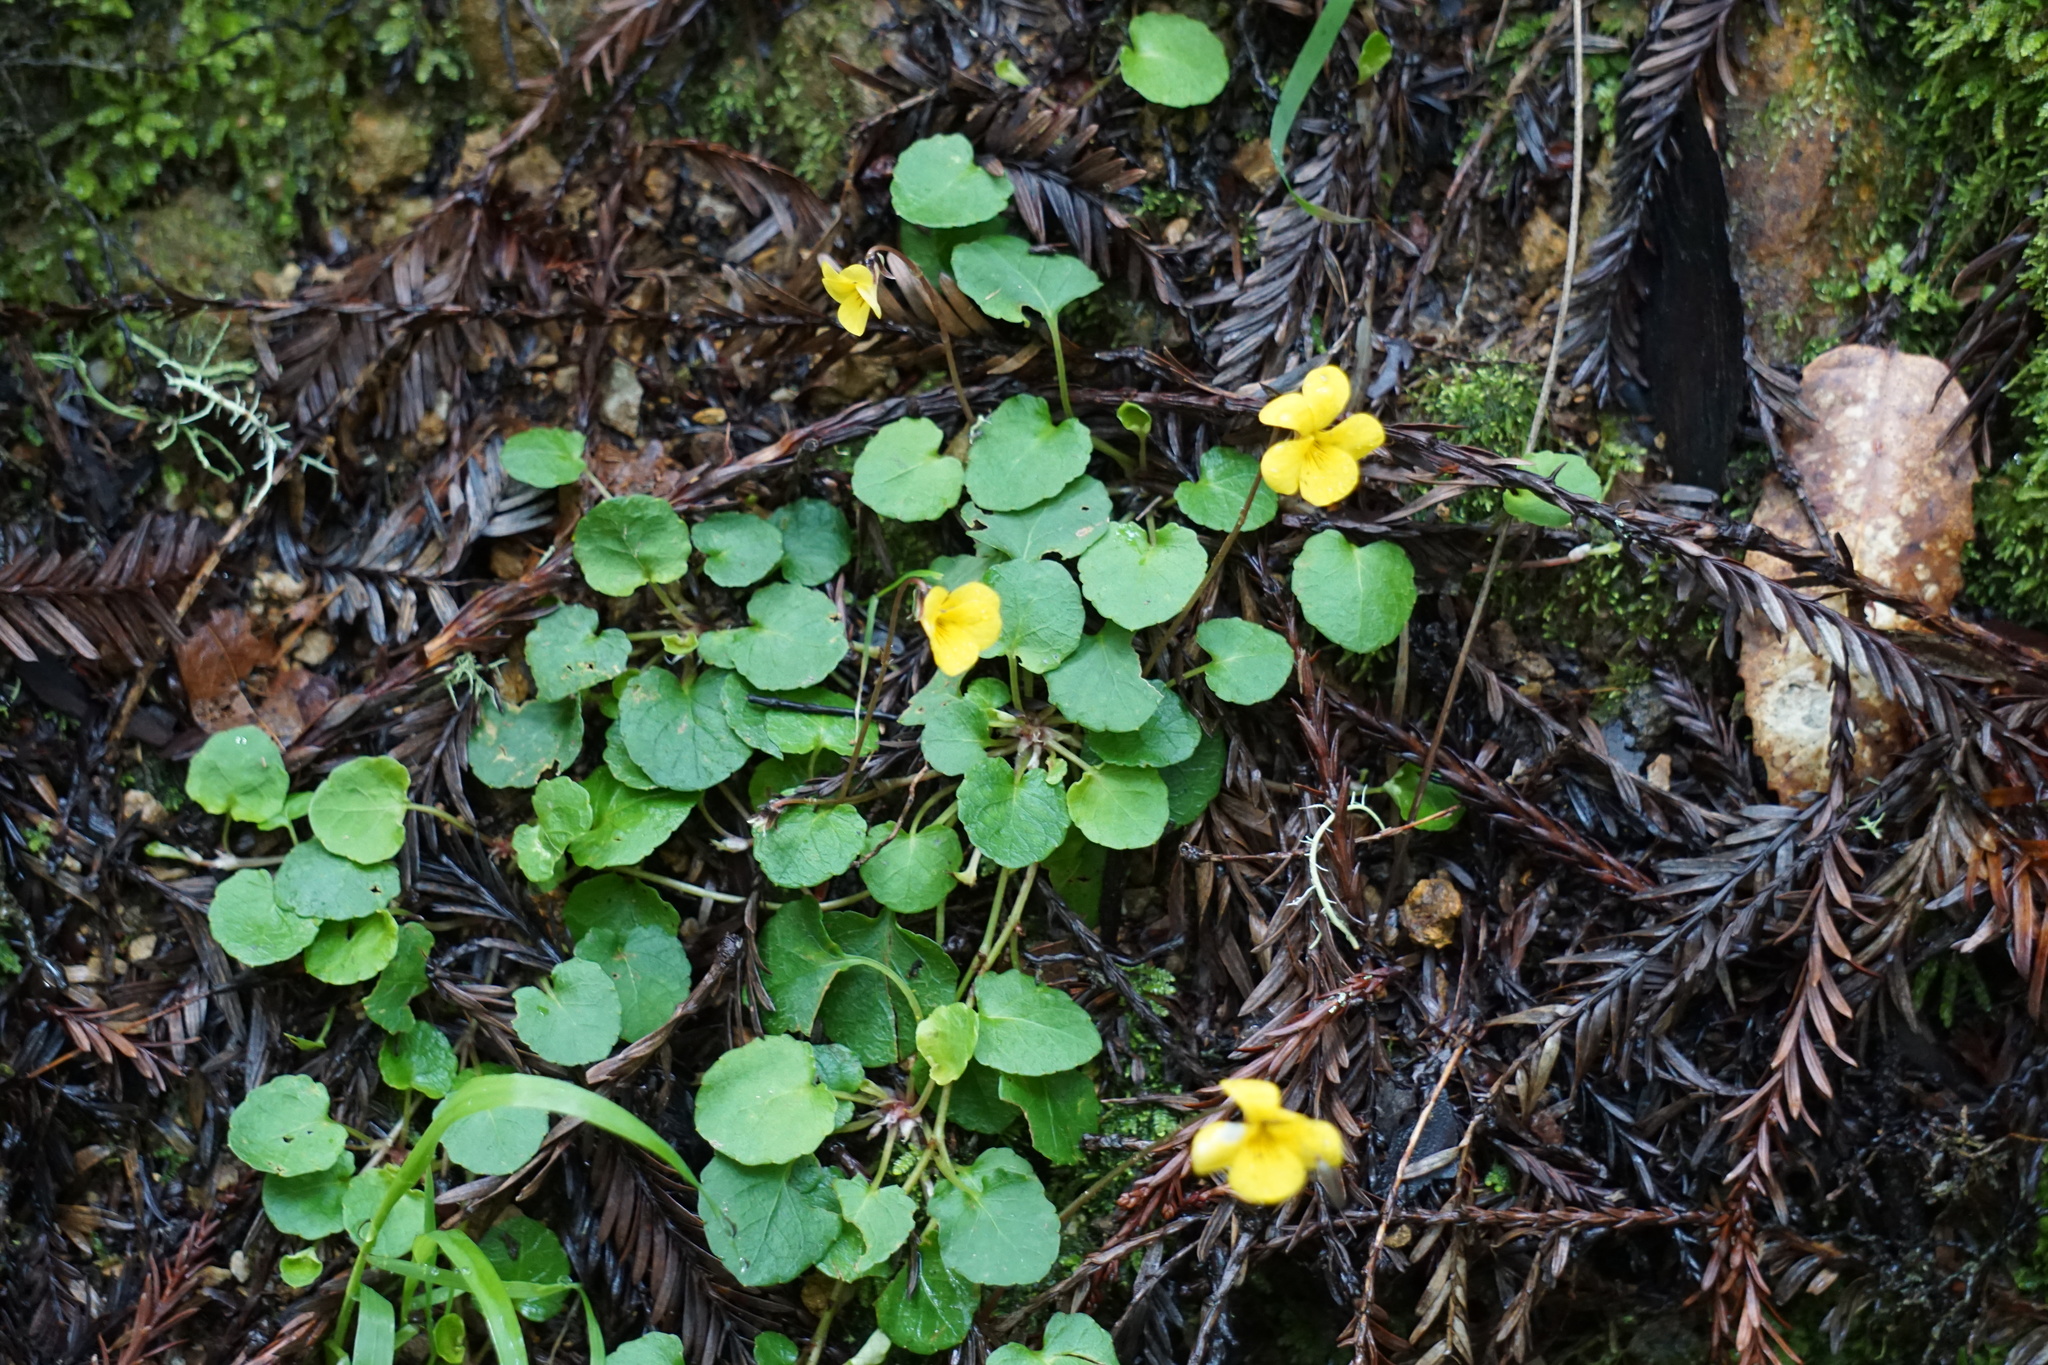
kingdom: Plantae
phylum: Tracheophyta
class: Magnoliopsida
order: Malpighiales
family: Violaceae
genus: Viola
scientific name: Viola sempervirens
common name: Evergreen violet
